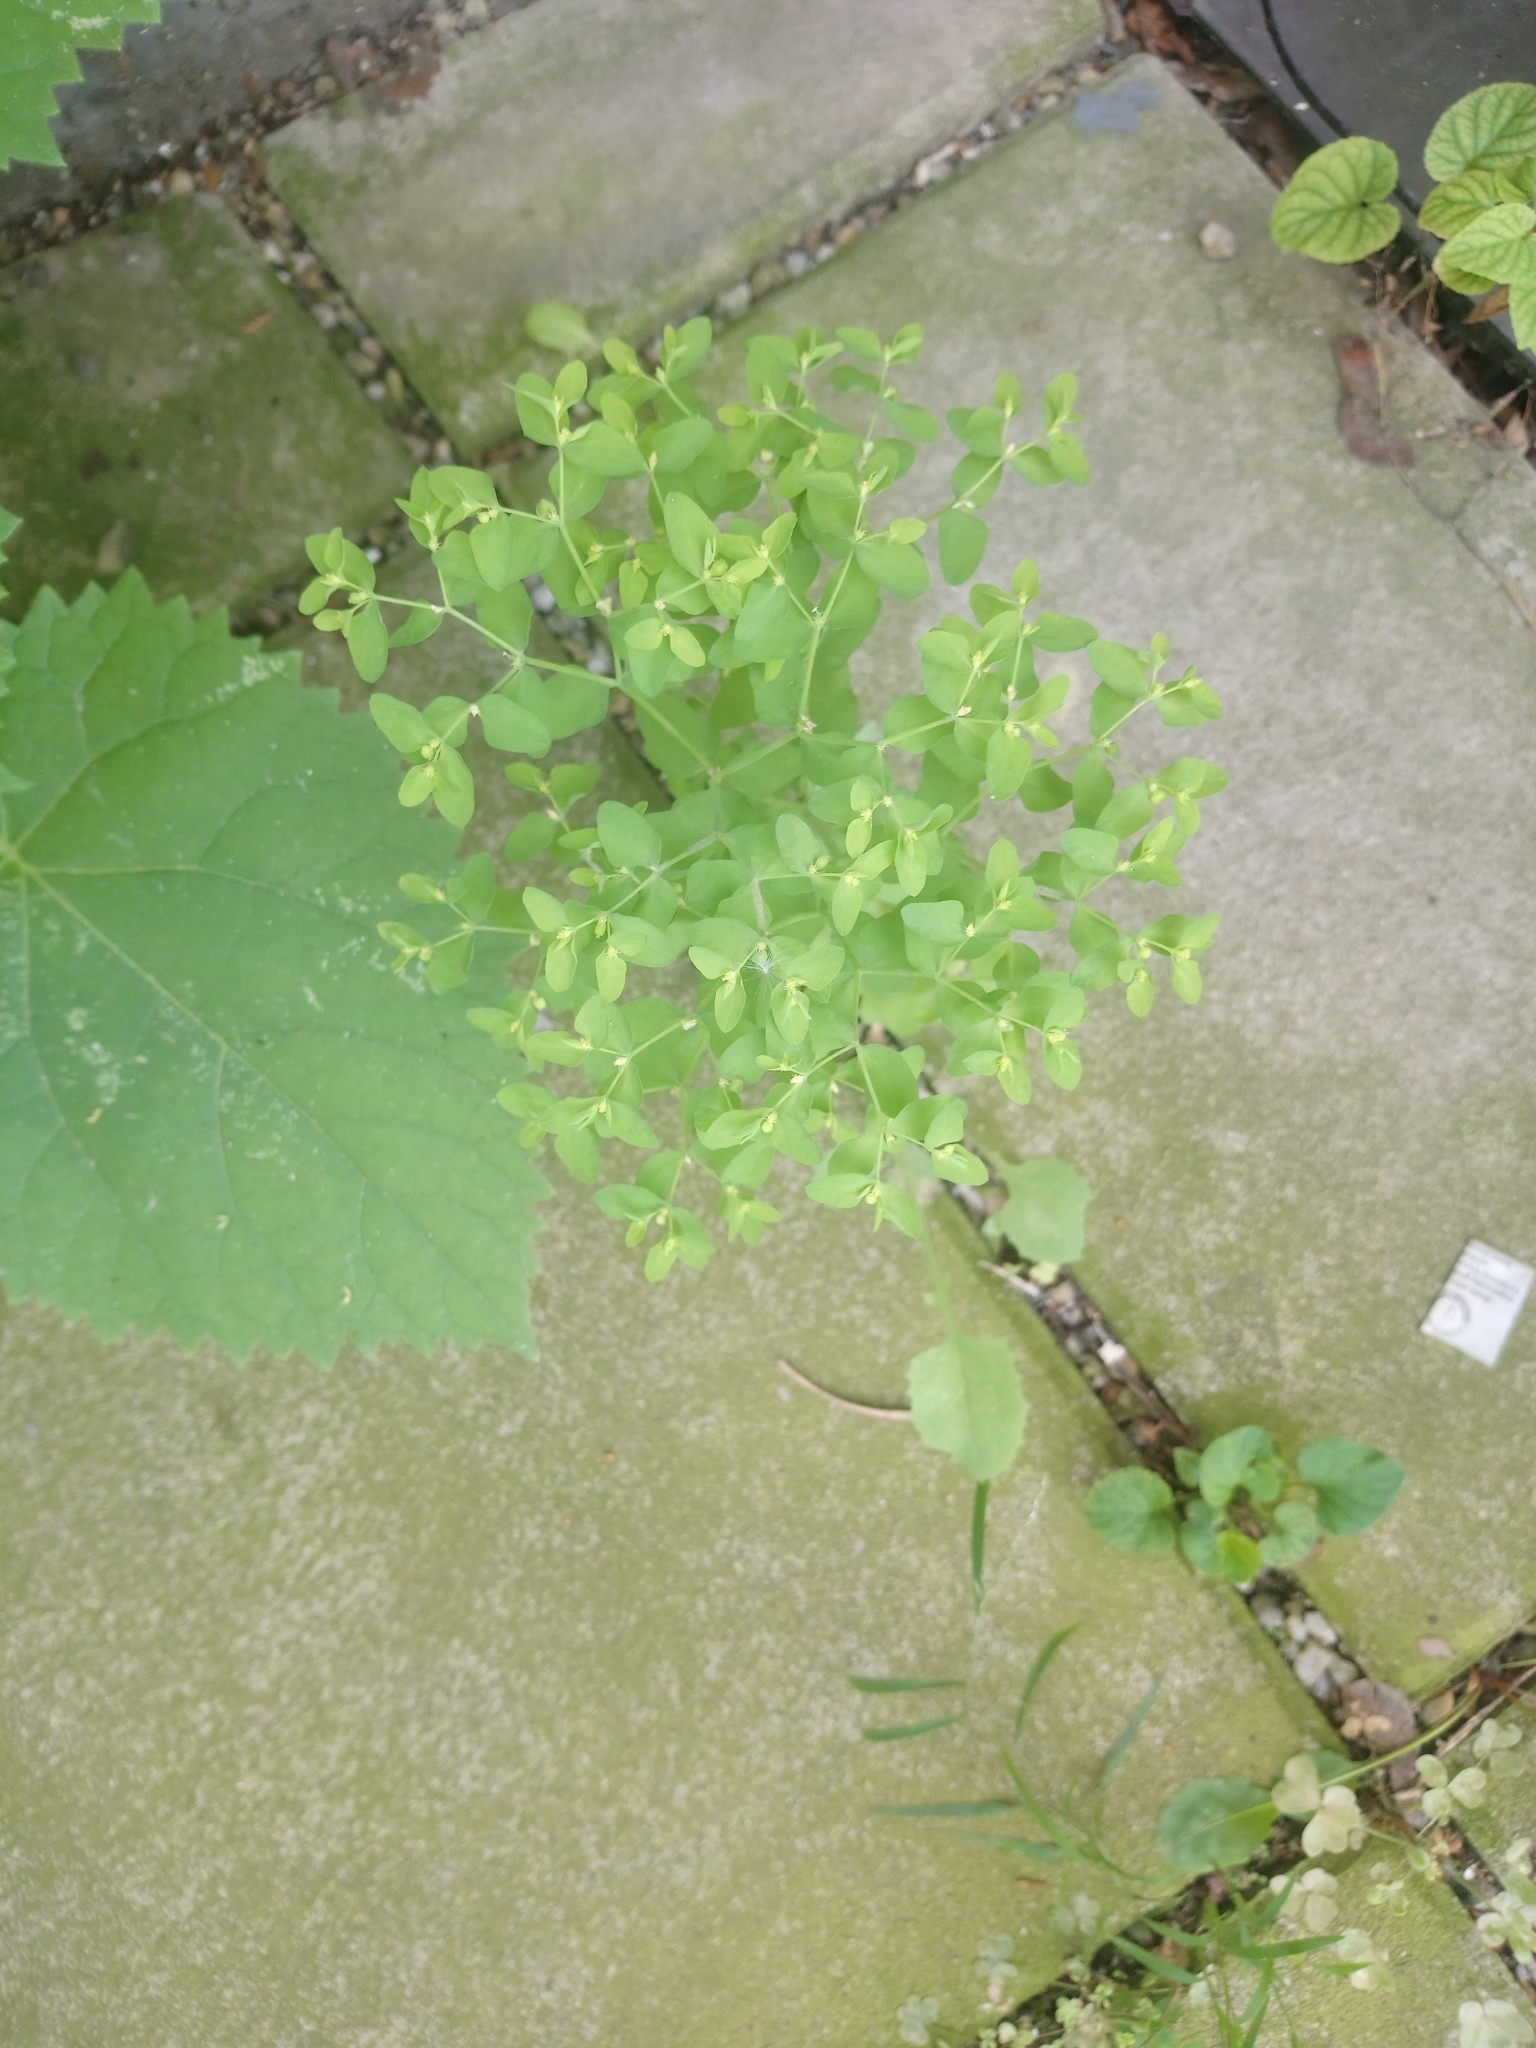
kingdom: Plantae
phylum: Tracheophyta
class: Magnoliopsida
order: Malpighiales
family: Euphorbiaceae
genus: Euphorbia
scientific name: Euphorbia peplus
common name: Petty spurge
